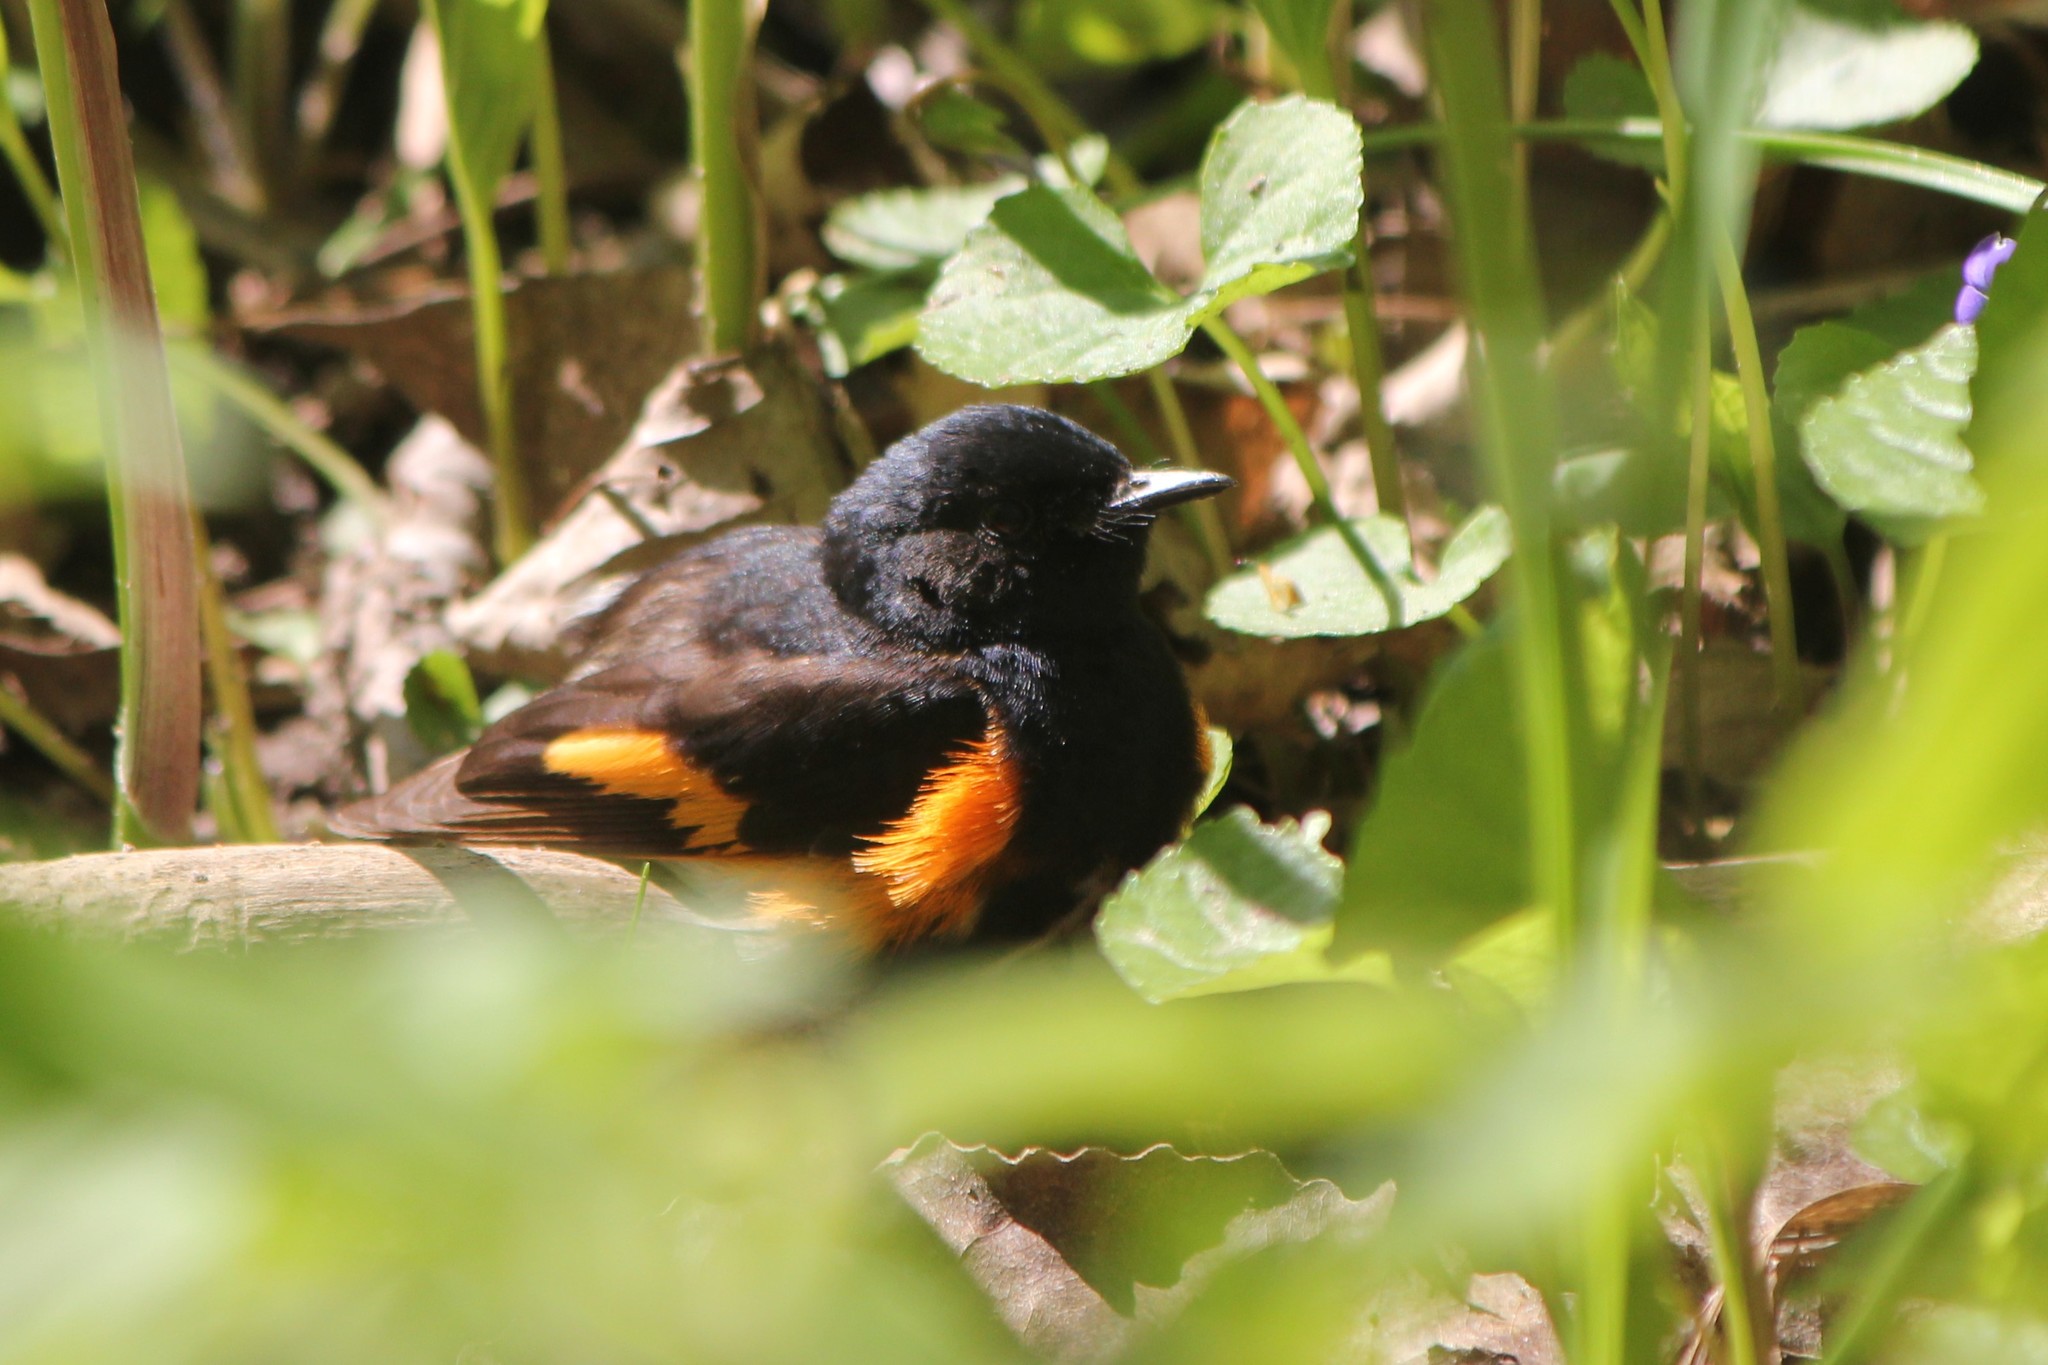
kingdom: Animalia
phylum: Chordata
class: Aves
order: Passeriformes
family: Parulidae
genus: Setophaga
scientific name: Setophaga ruticilla
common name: American redstart
